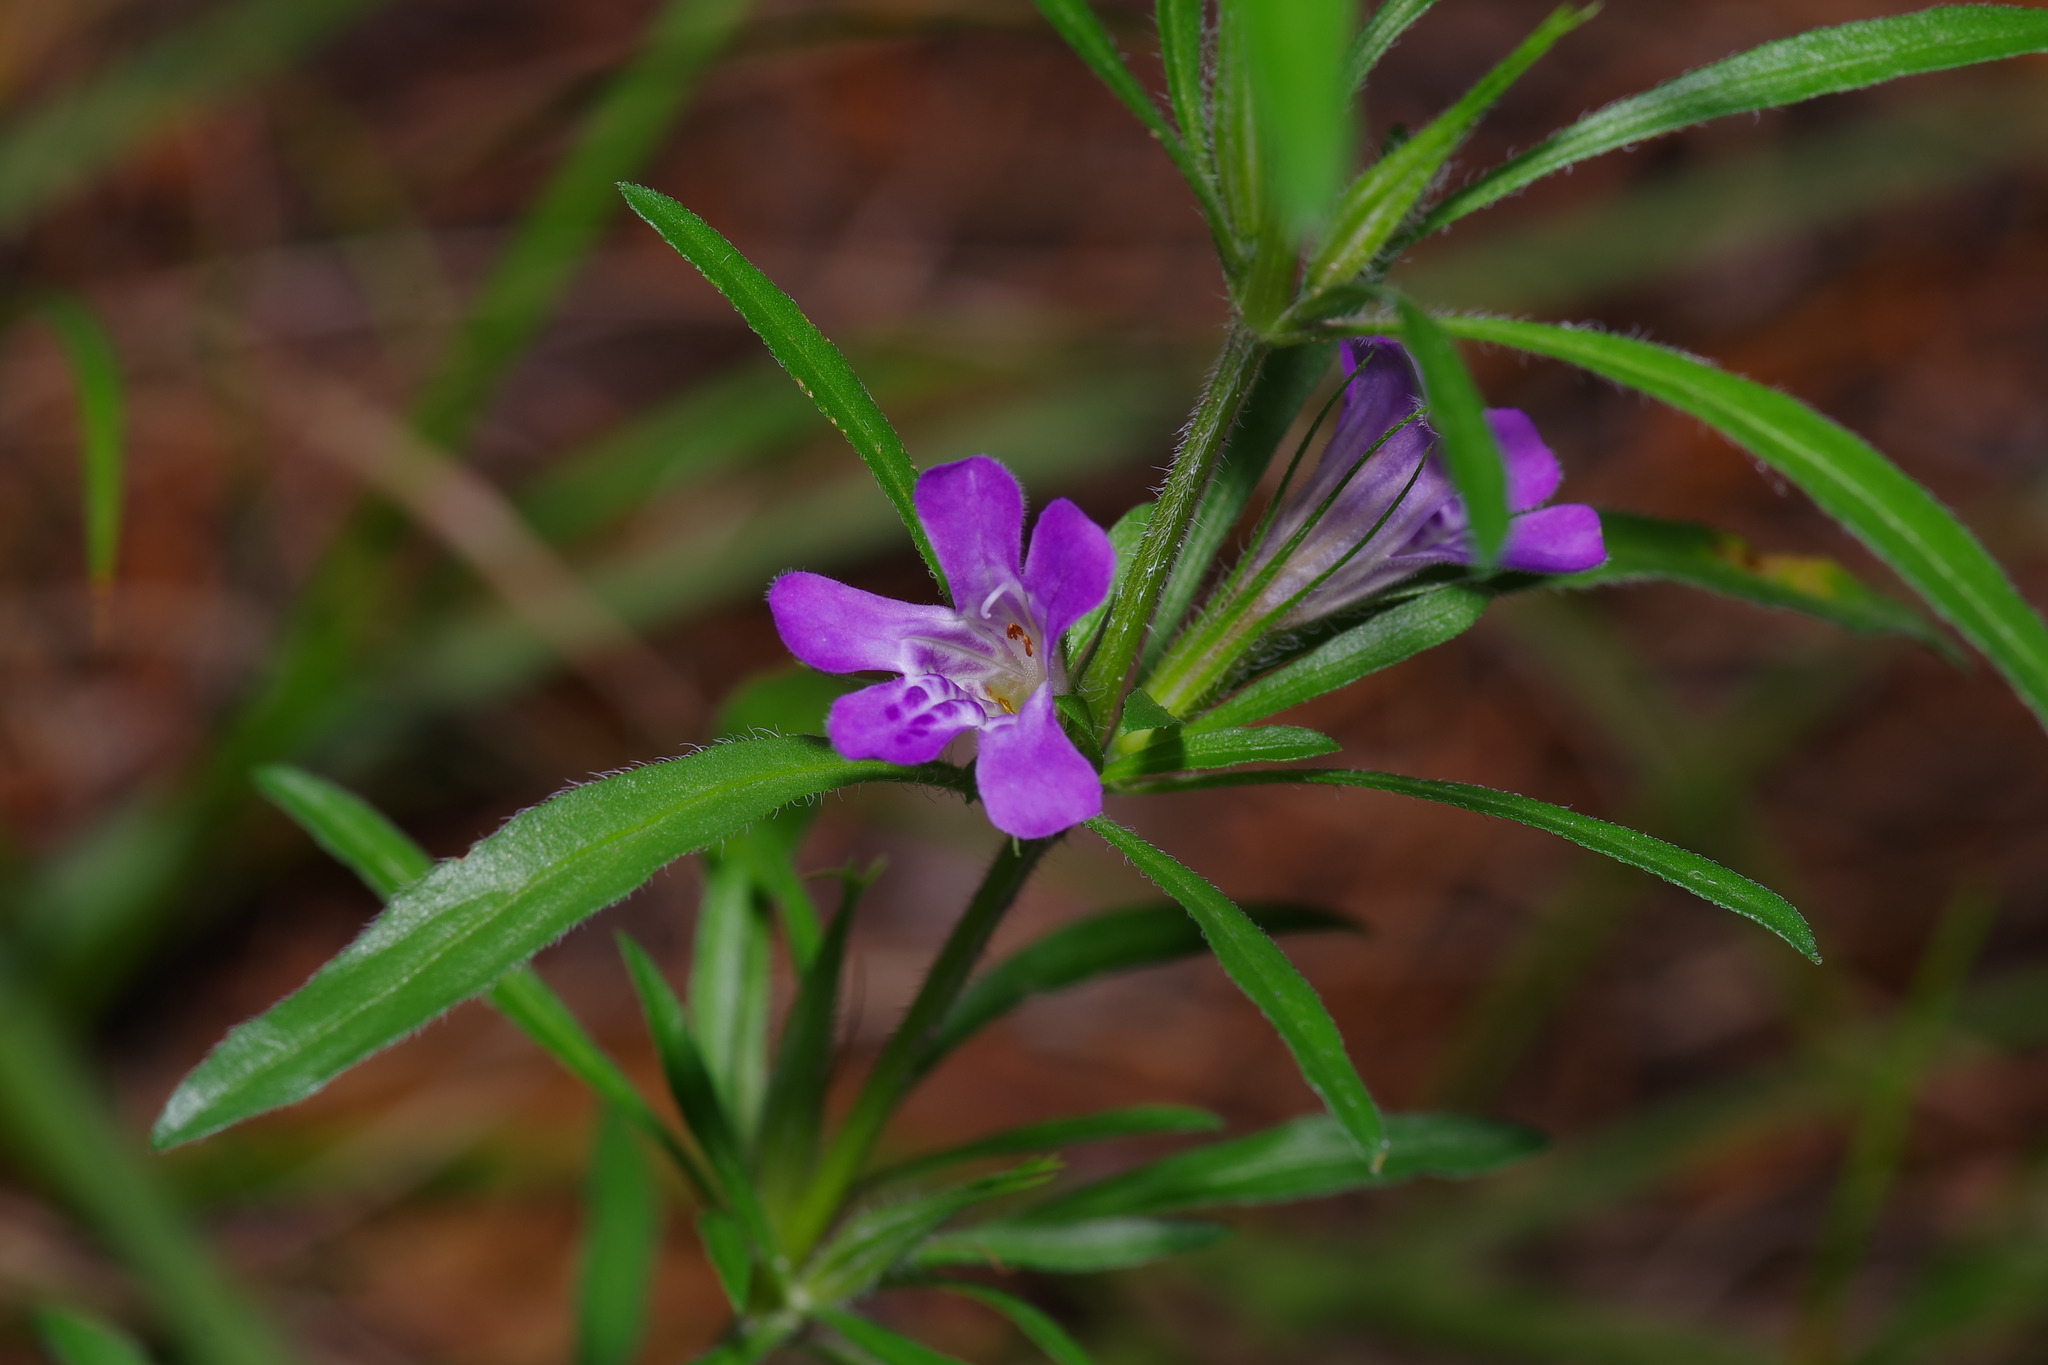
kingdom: Plantae
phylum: Tracheophyta
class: Magnoliopsida
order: Lamiales
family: Acanthaceae
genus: Dyschoriste
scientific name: Dyschoriste linearis
